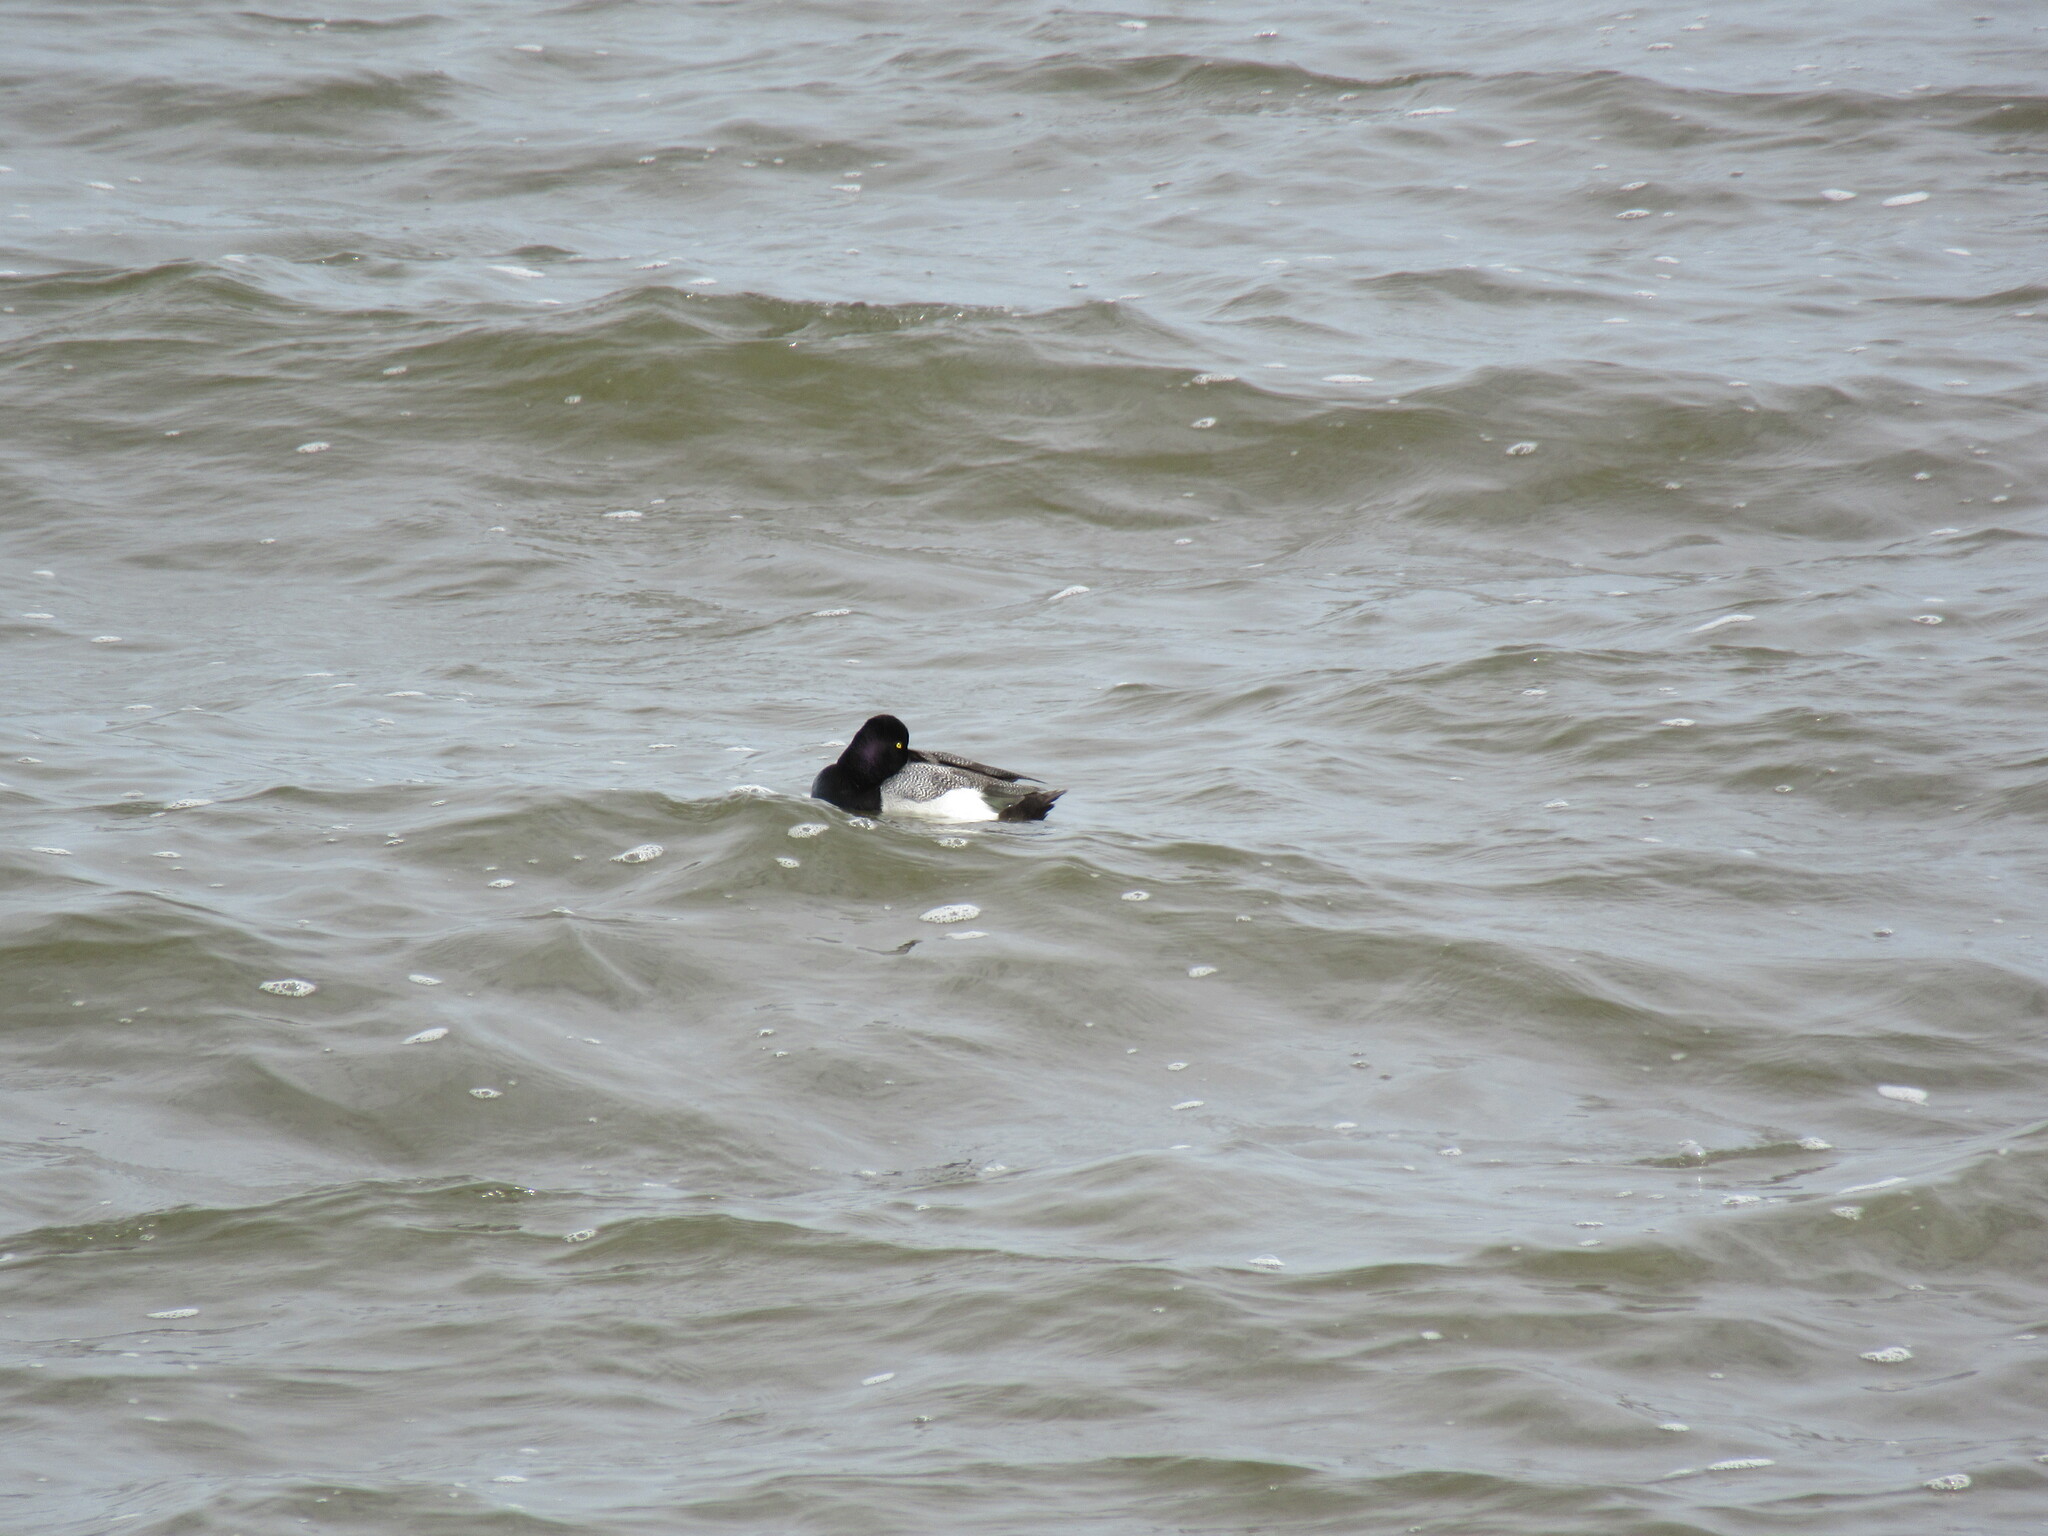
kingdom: Animalia
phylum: Chordata
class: Aves
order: Anseriformes
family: Anatidae
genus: Aythya
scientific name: Aythya affinis
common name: Lesser scaup
